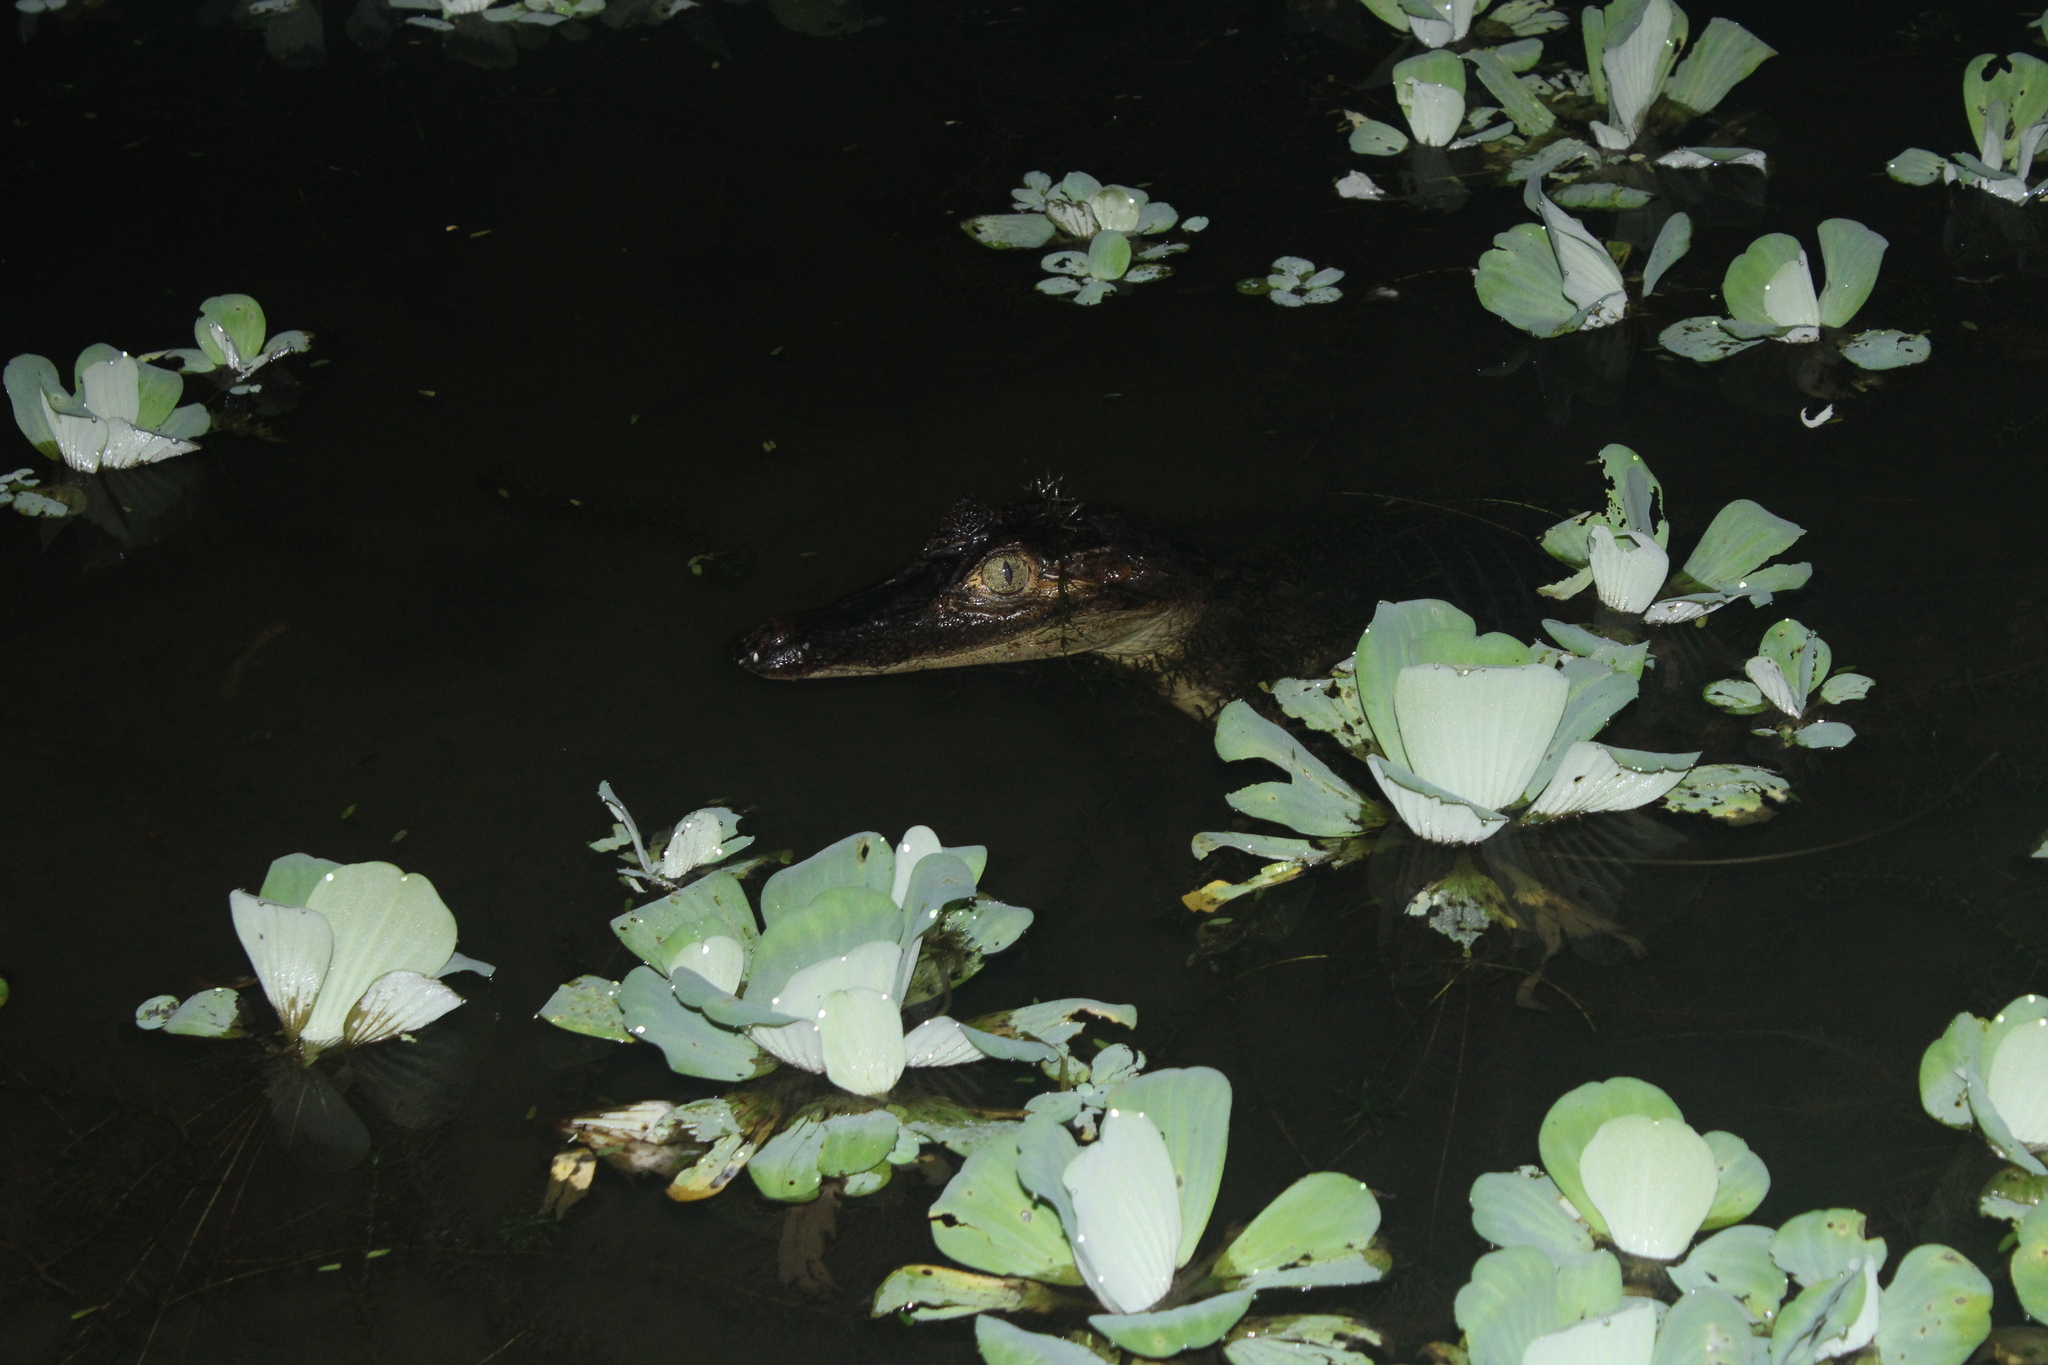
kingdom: Animalia
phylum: Chordata
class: Crocodylia
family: Alligatoridae
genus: Caiman
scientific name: Caiman crocodilus
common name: Common caiman
